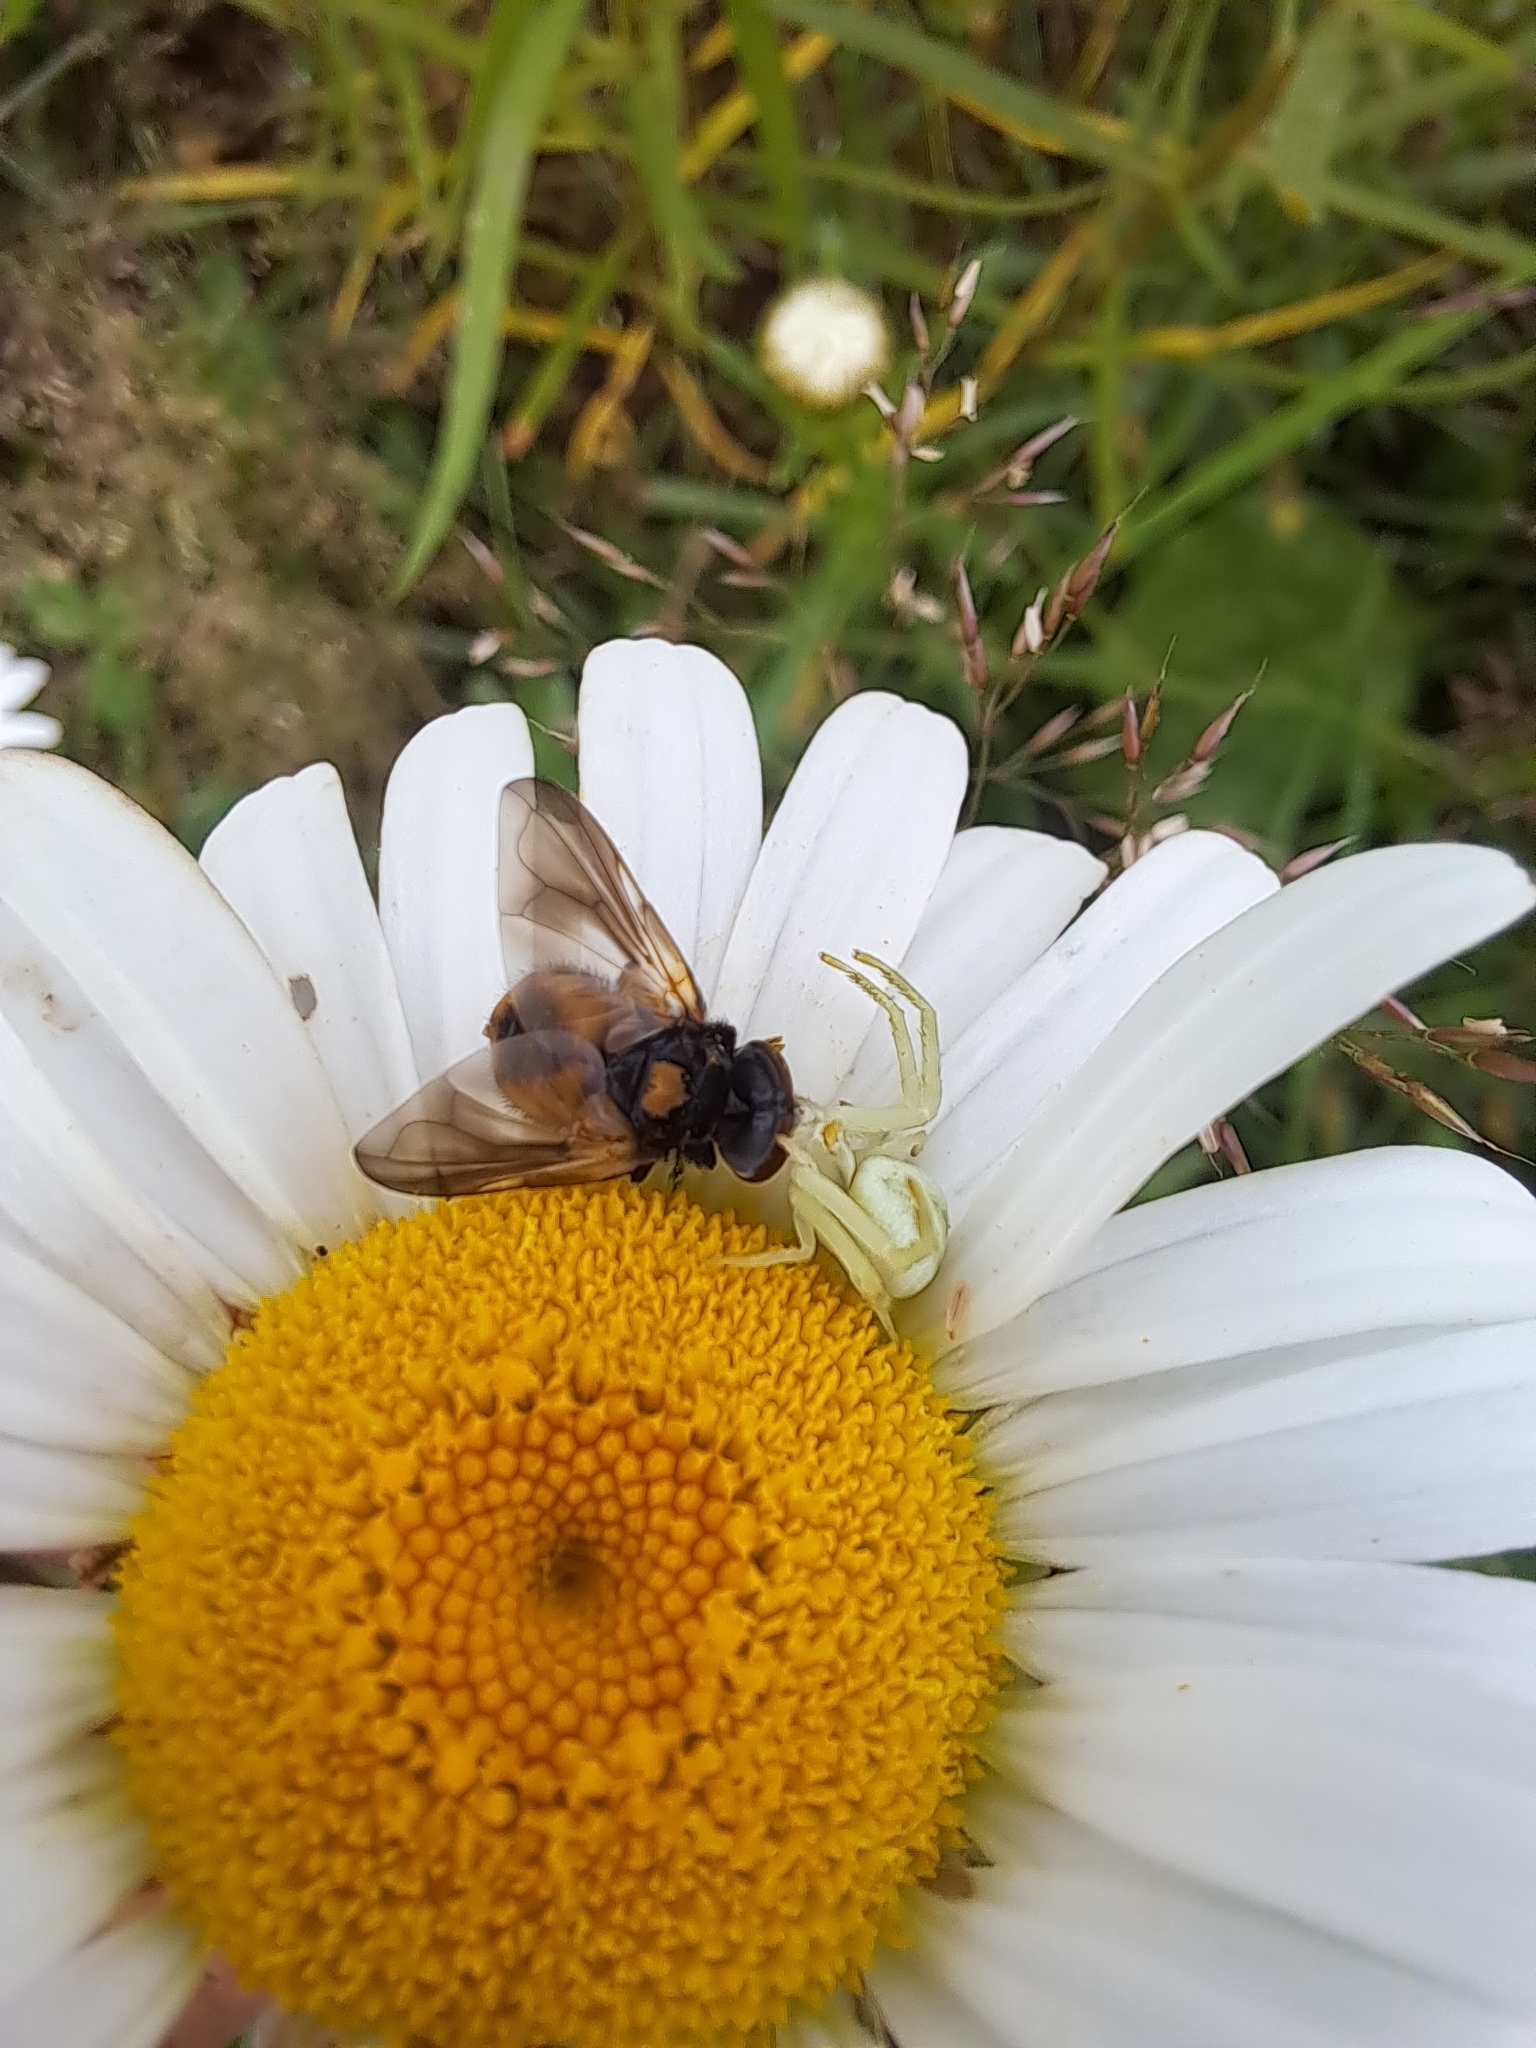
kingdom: Animalia
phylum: Arthropoda
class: Arachnida
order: Araneae
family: Thomisidae
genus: Misumena
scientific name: Misumena vatia
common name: Goldenrod crab spider
